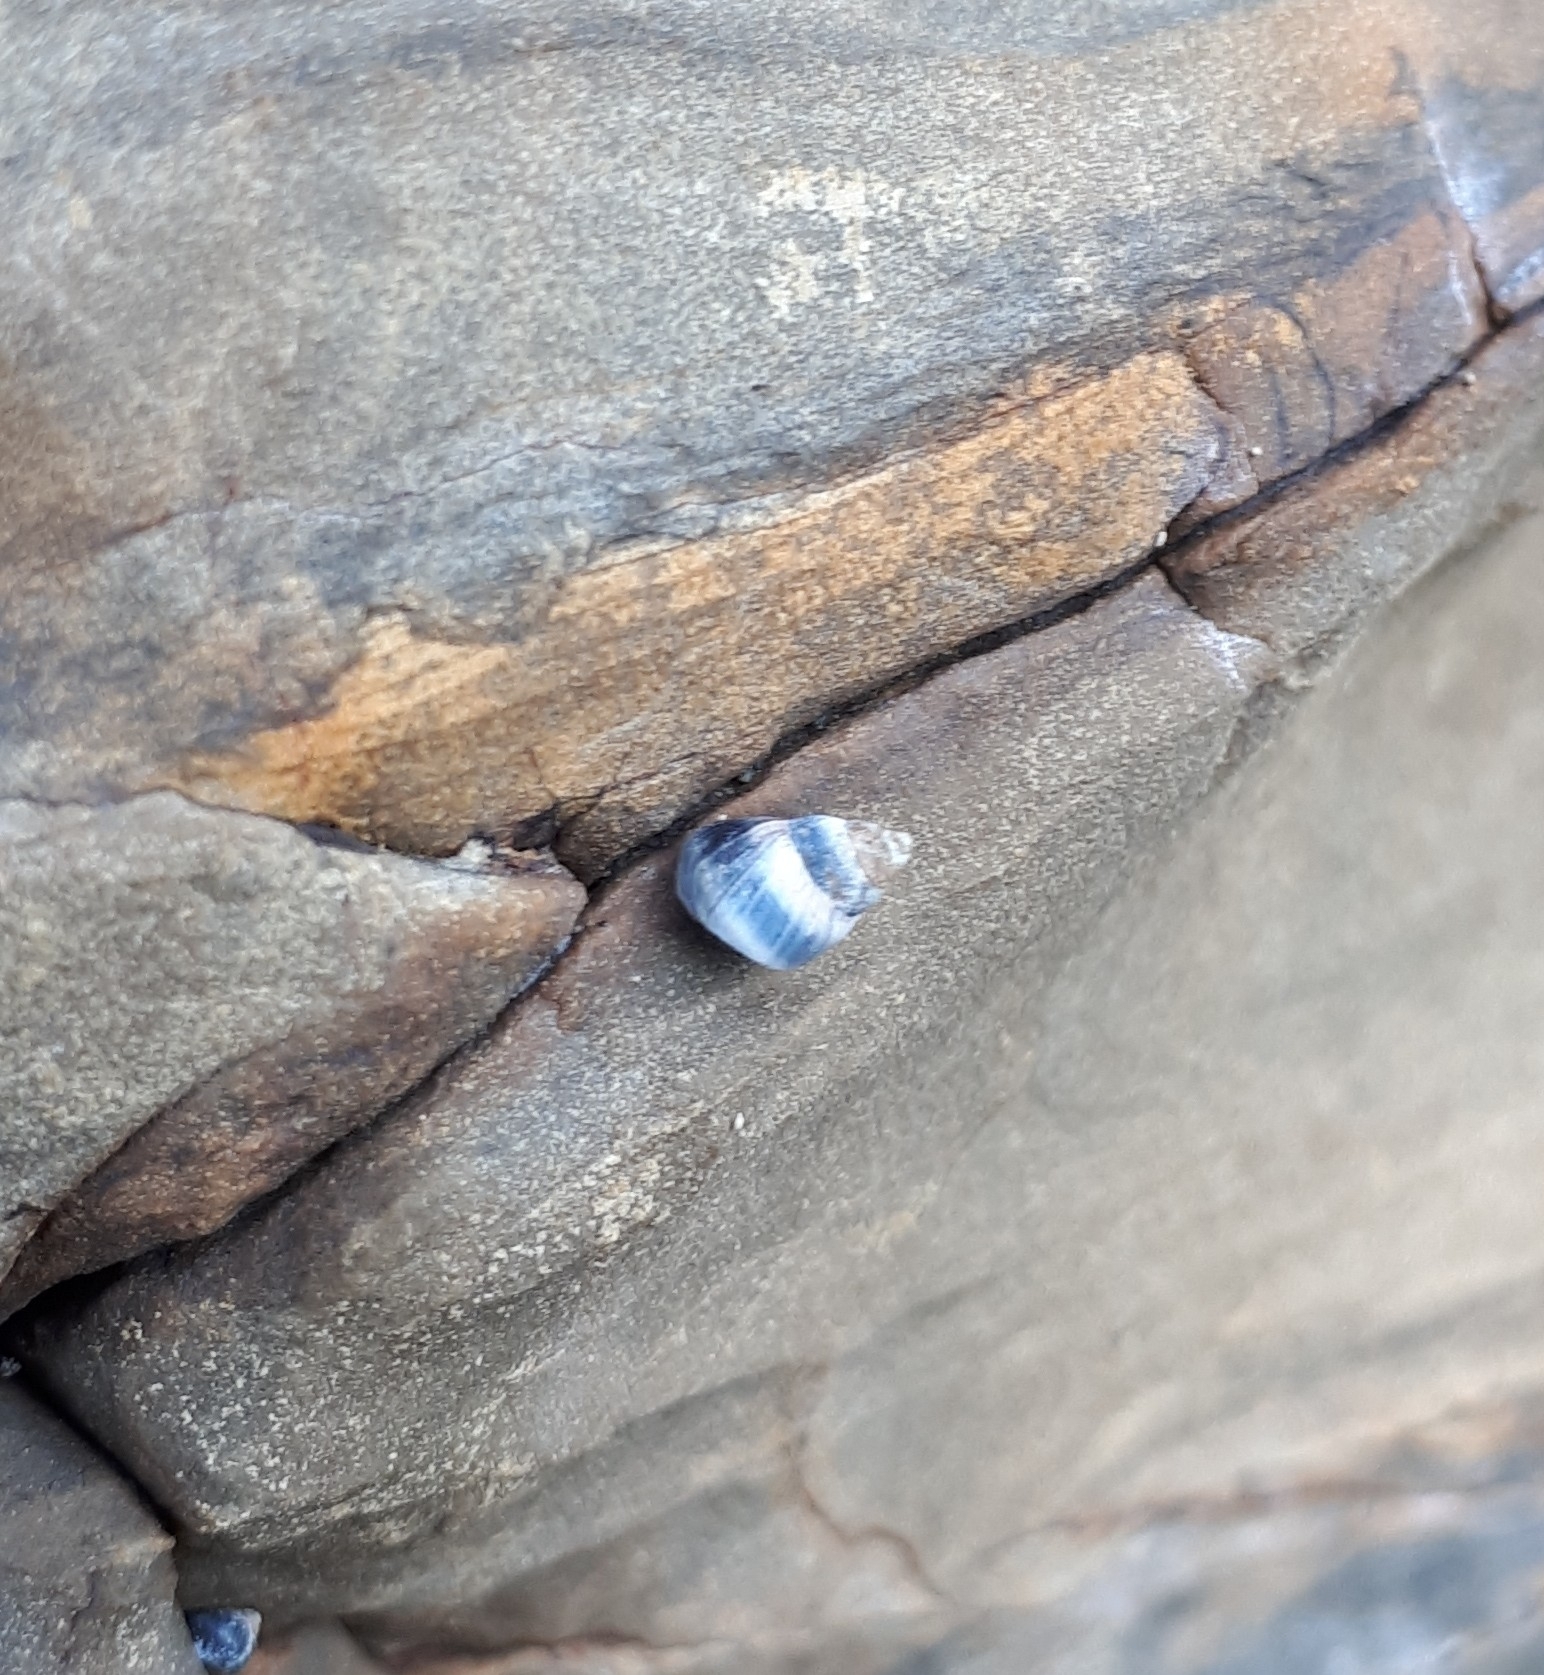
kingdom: Animalia
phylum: Mollusca
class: Gastropoda
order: Littorinimorpha
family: Littorinidae
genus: Austrolittorina
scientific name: Austrolittorina antipodum
